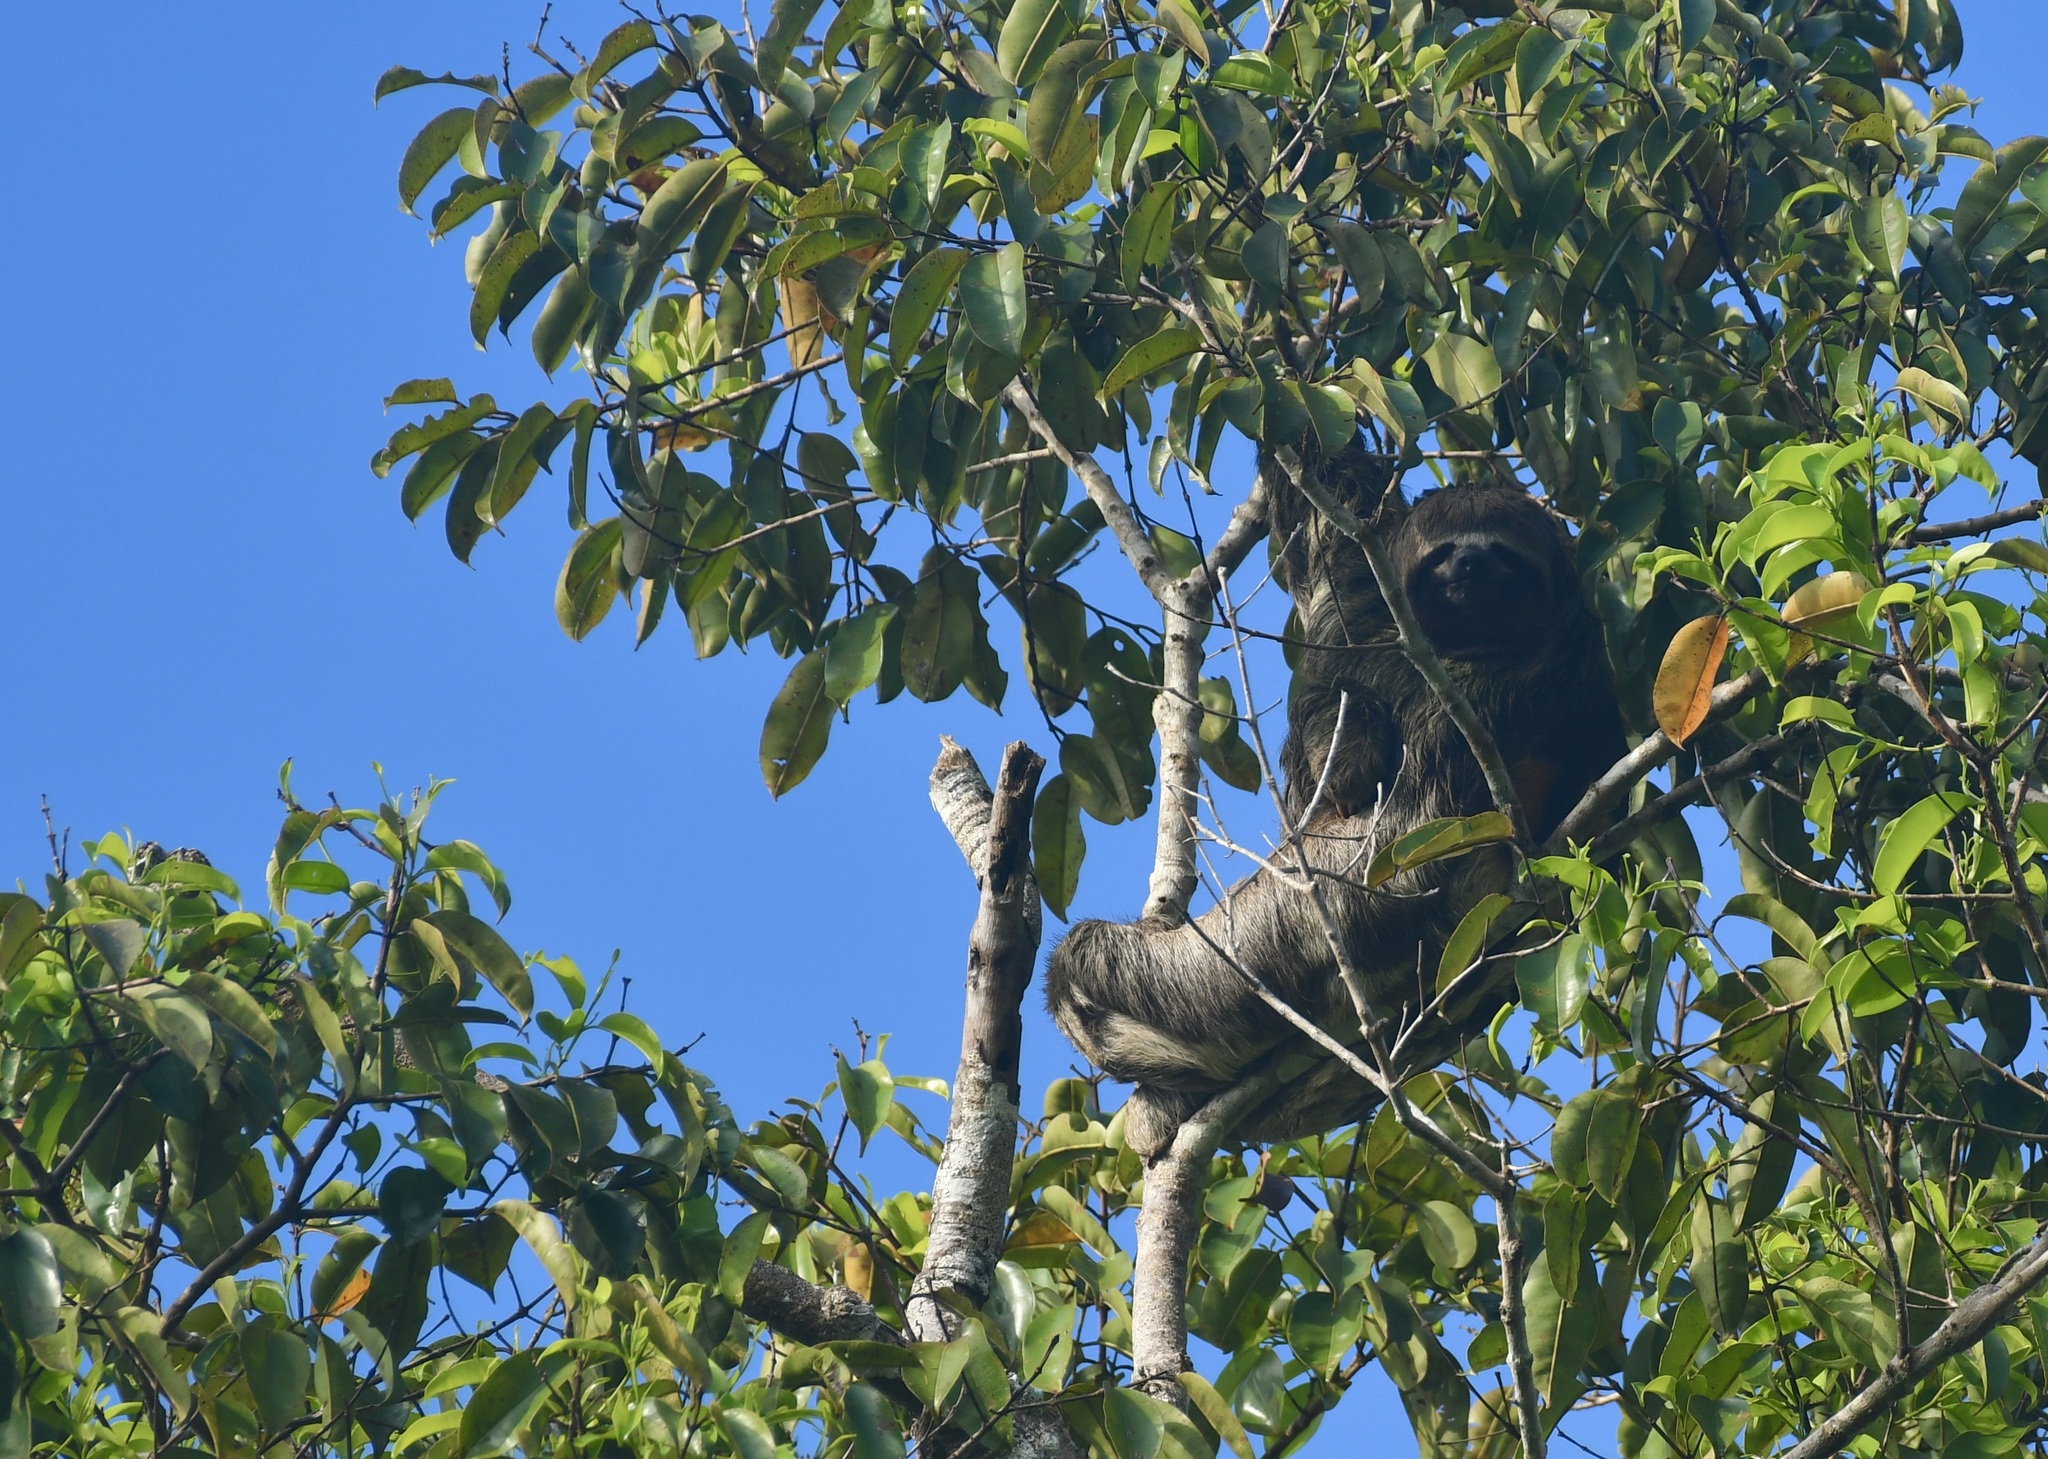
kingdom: Animalia
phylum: Chordata
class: Mammalia
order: Pilosa
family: Bradypodidae
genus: Bradypus
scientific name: Bradypus variegatus
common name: Brown-throated three-toed sloth
